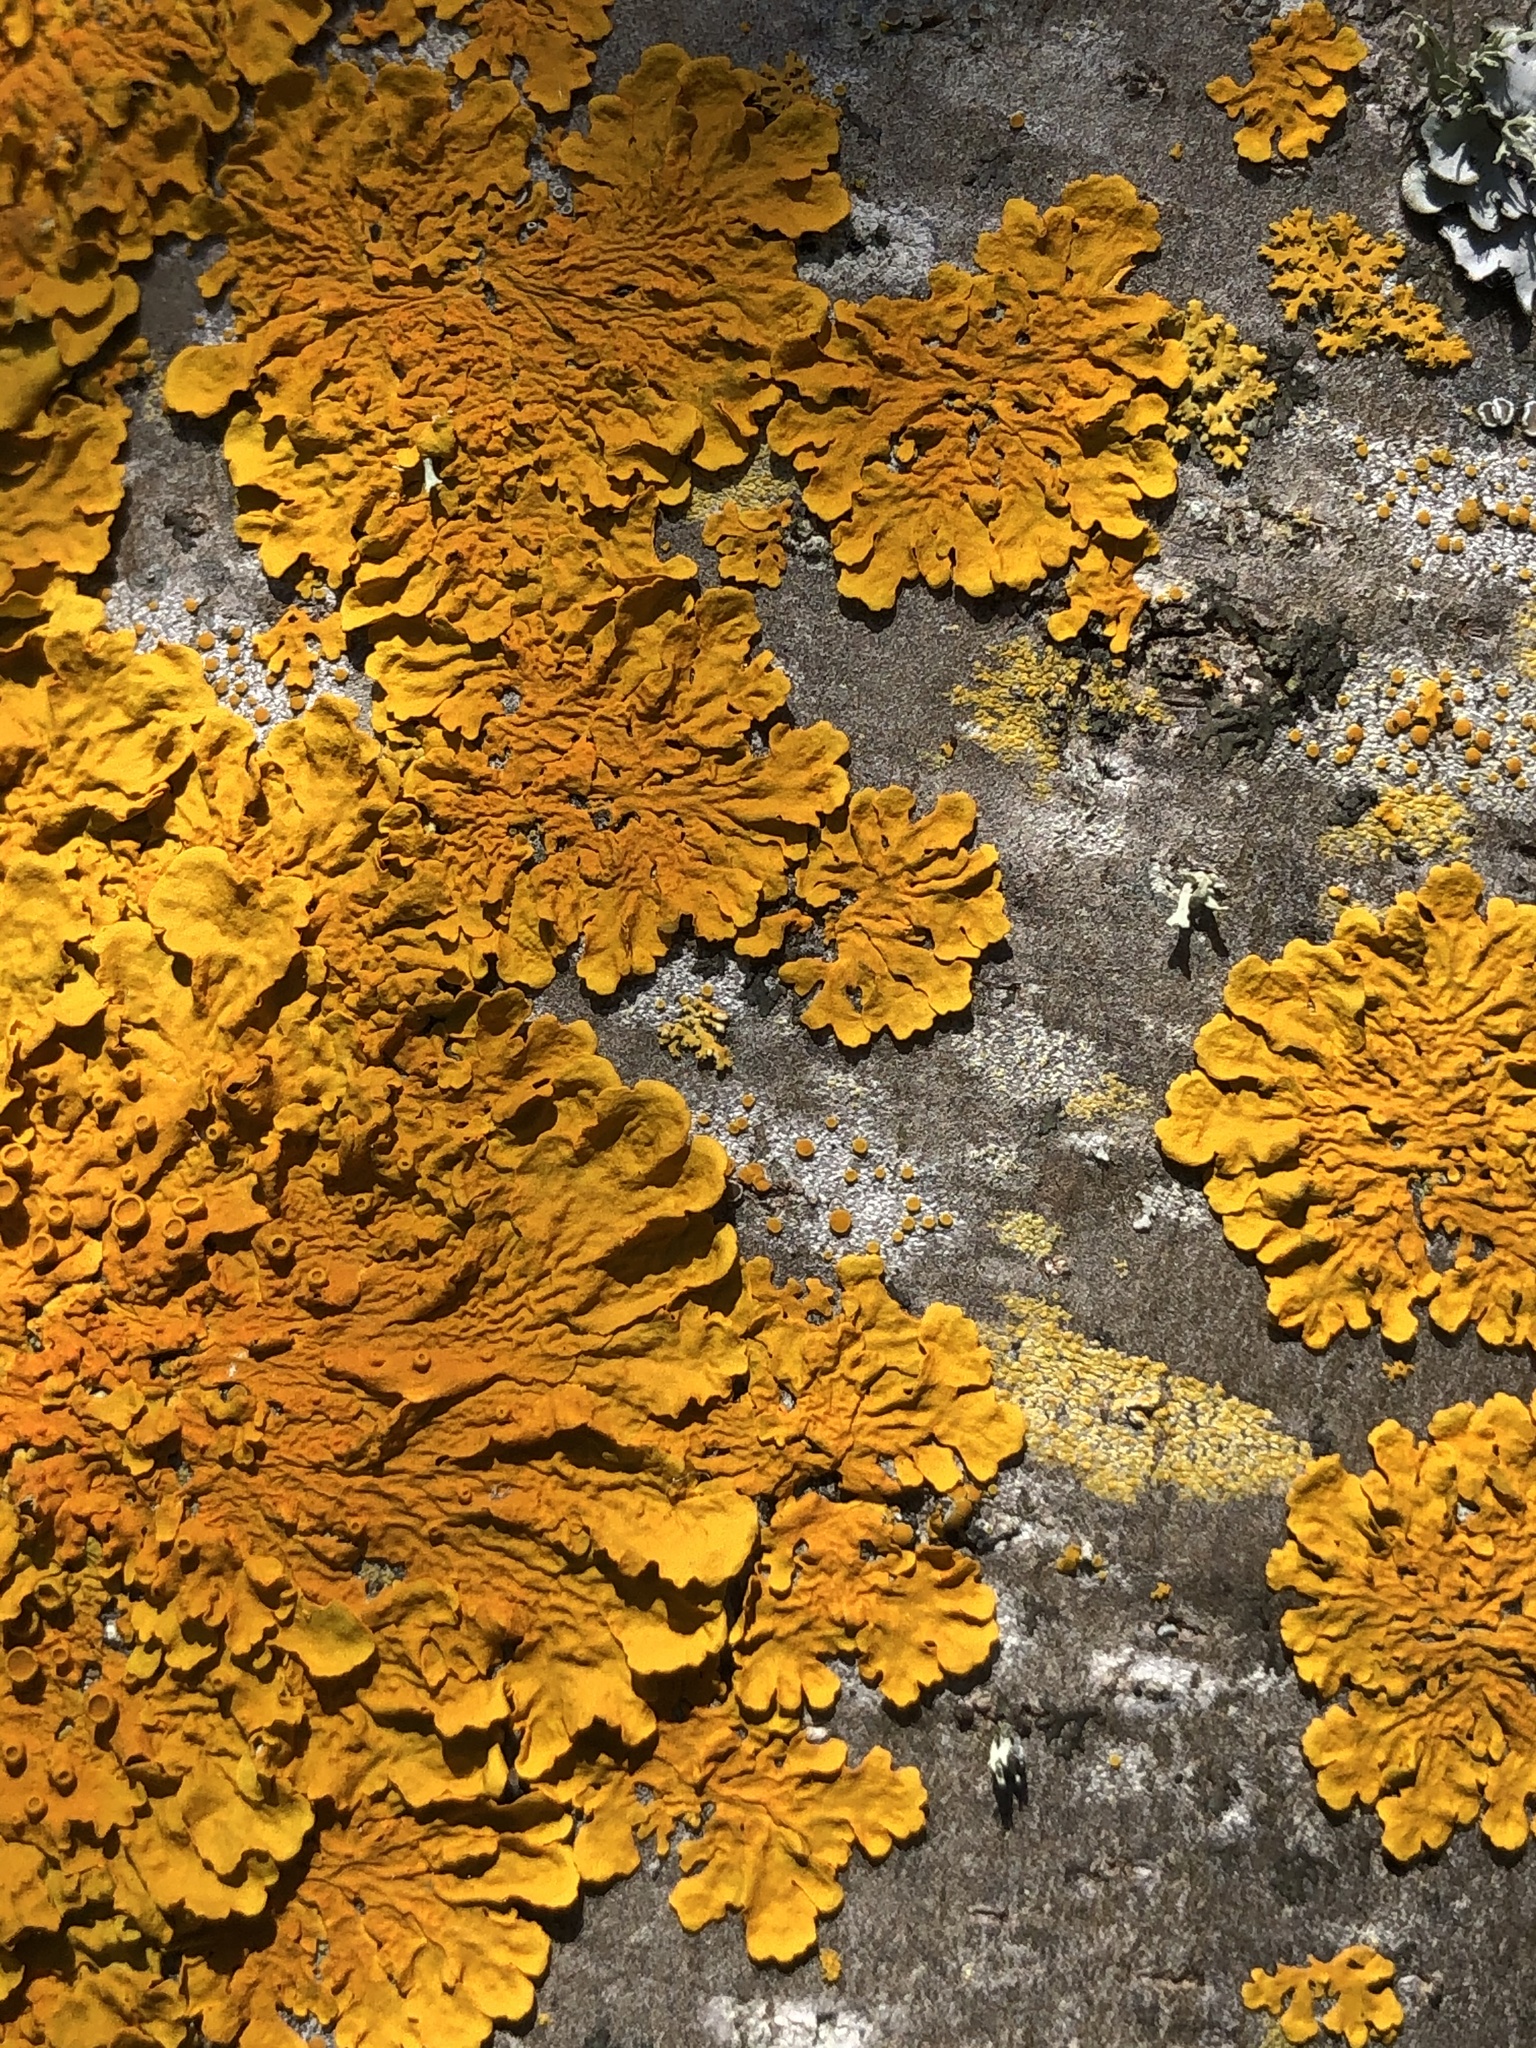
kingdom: Fungi
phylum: Ascomycota
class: Lecanoromycetes
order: Teloschistales
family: Teloschistaceae
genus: Xanthoria
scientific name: Xanthoria parietina
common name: Common orange lichen
